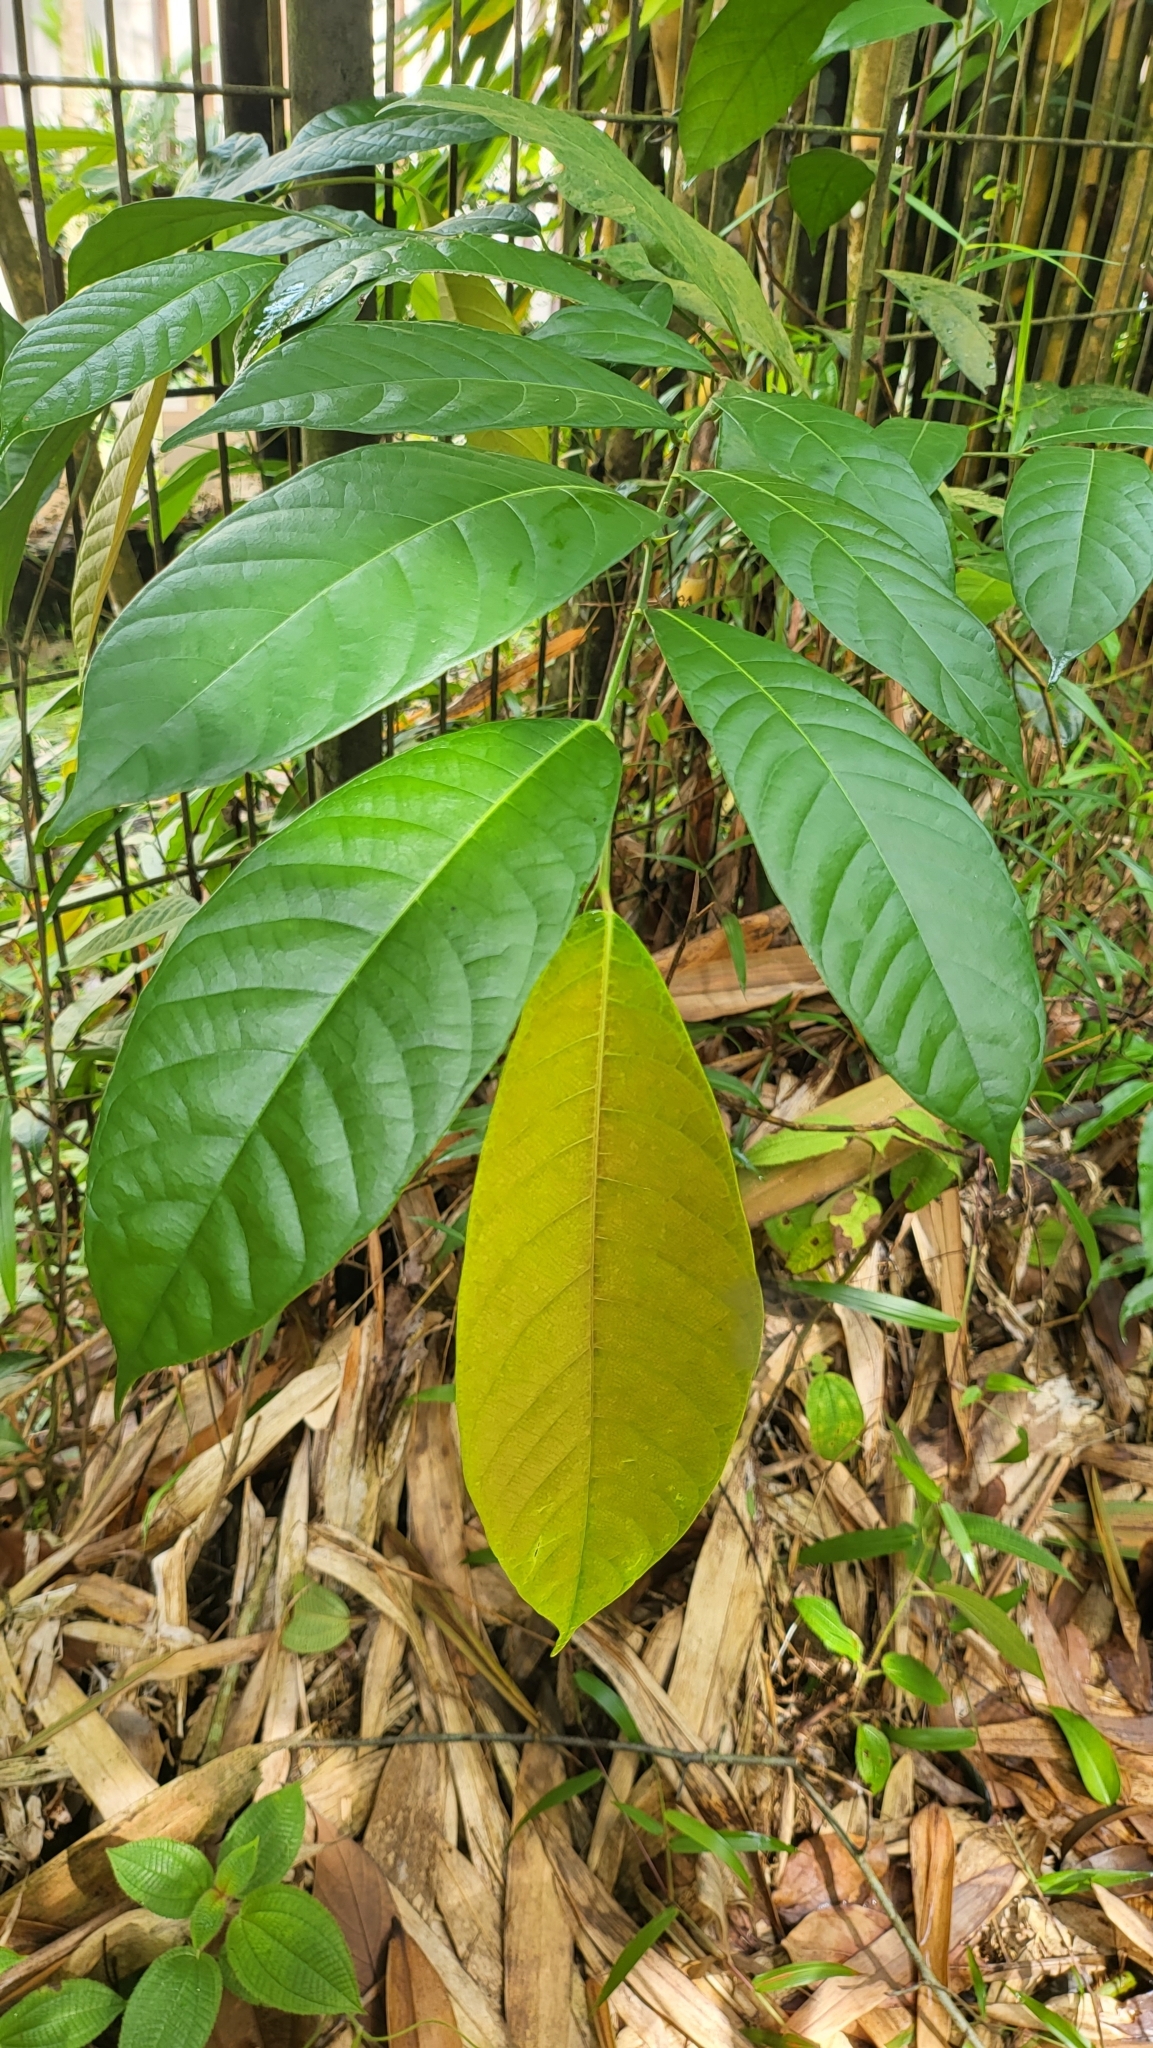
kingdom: Plantae
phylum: Tracheophyta
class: Magnoliopsida
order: Rosales
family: Moraceae
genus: Sloetia
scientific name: Sloetia elongata
